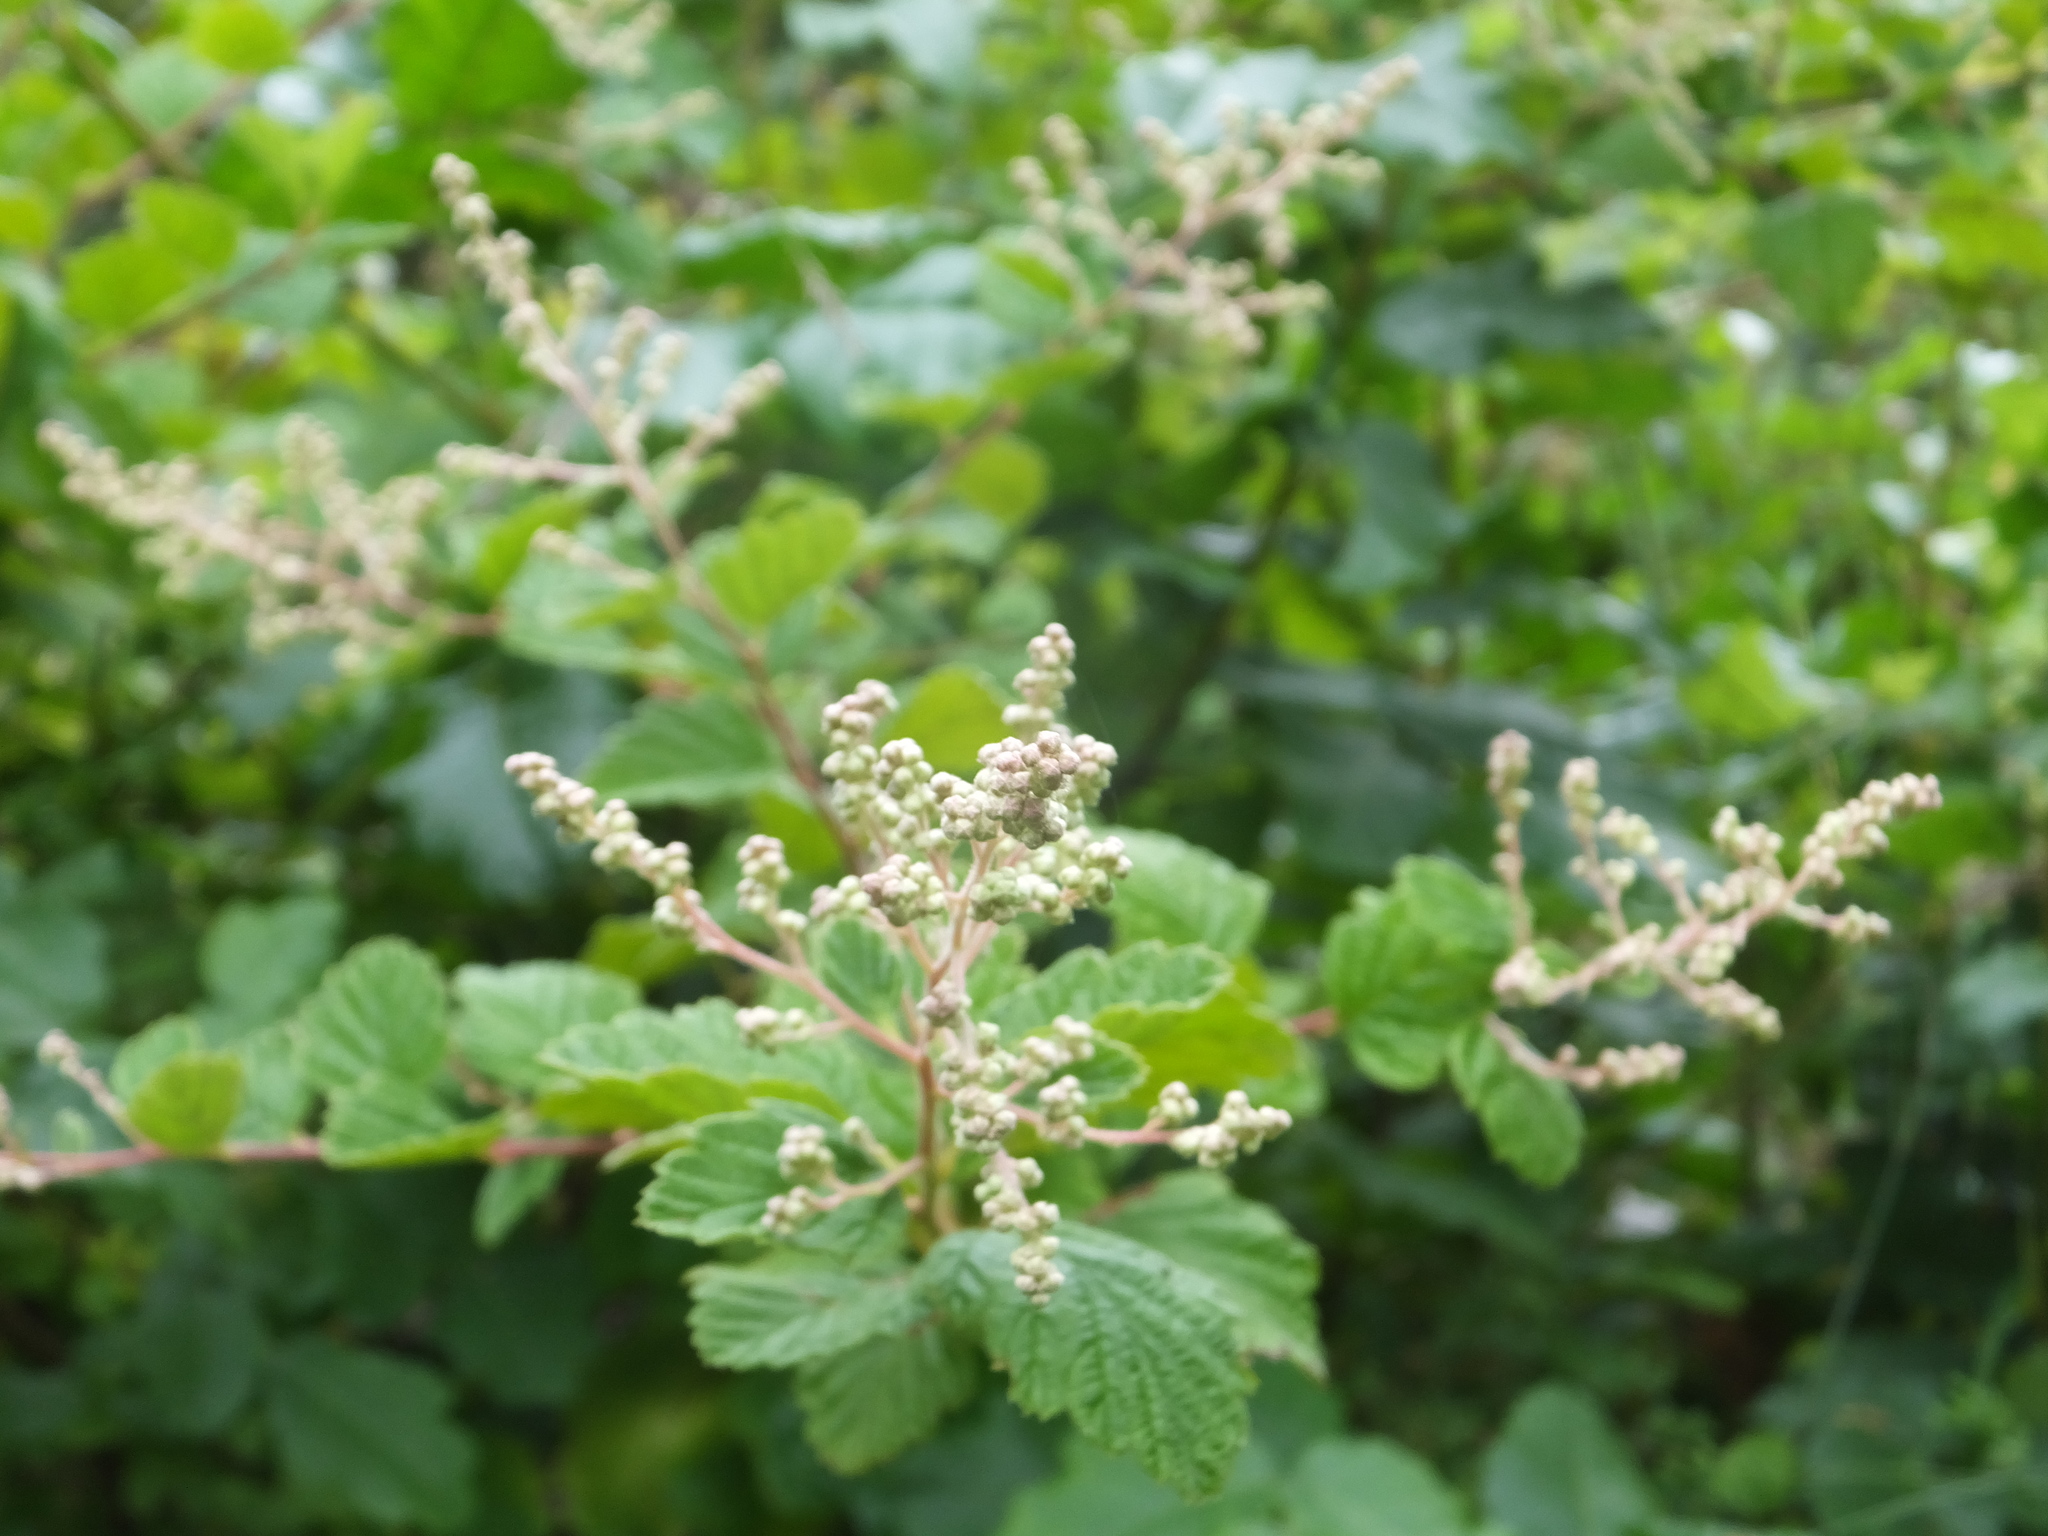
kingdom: Plantae
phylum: Tracheophyta
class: Magnoliopsida
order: Rosales
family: Rosaceae
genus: Holodiscus
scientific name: Holodiscus discolor
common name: Oceanspray
